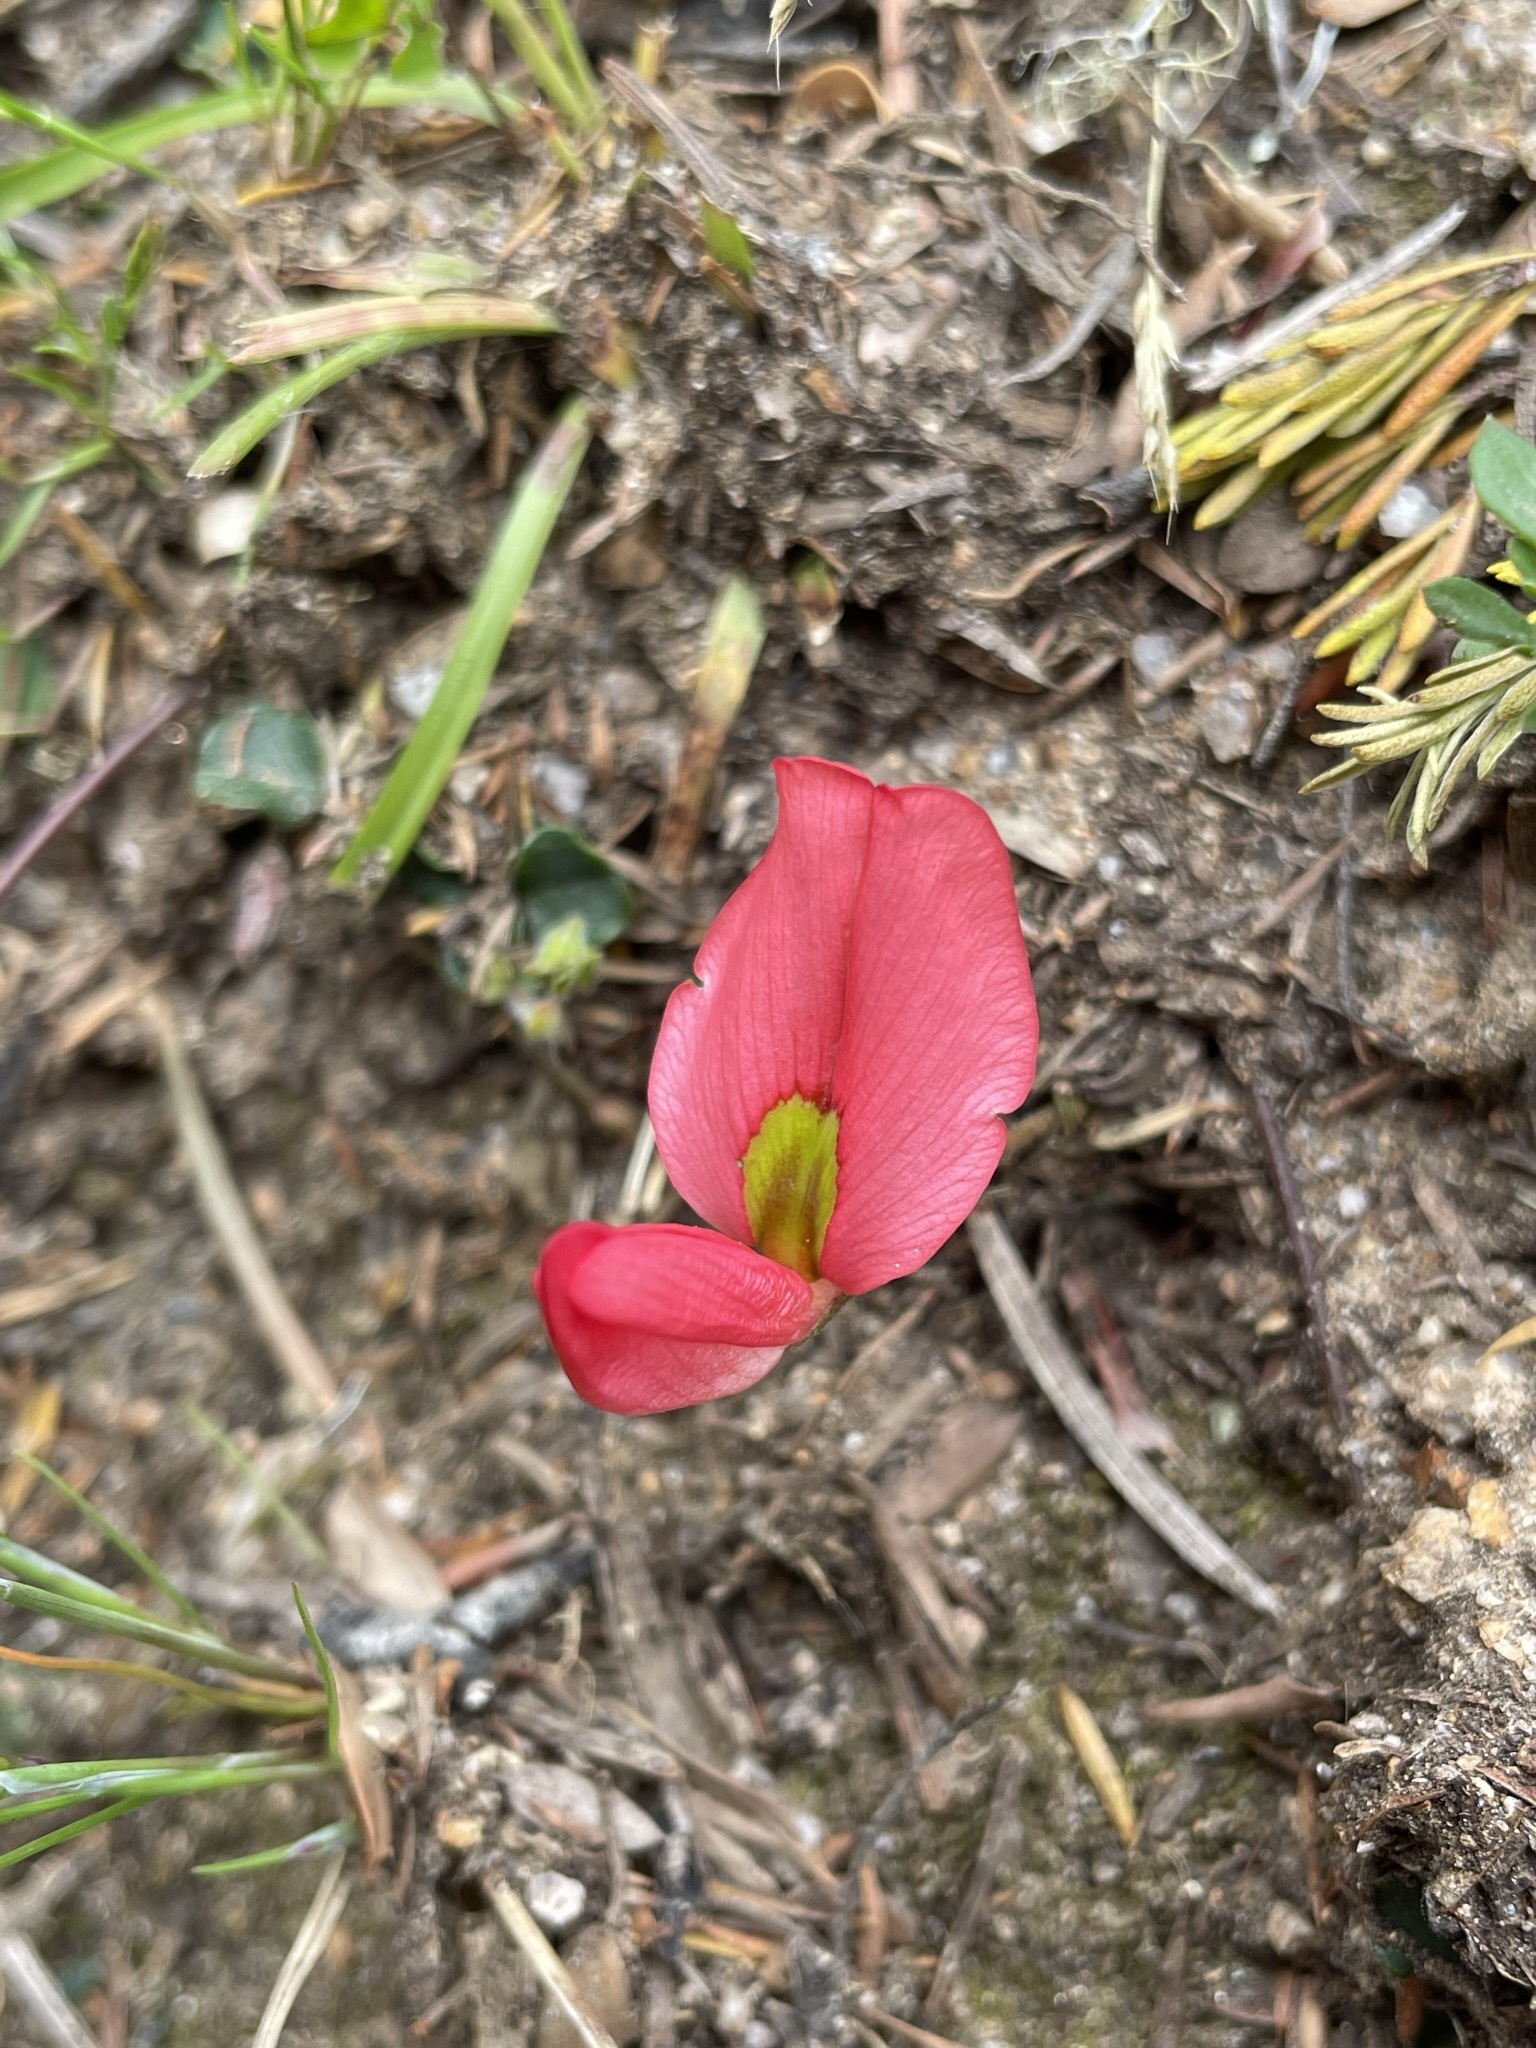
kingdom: Plantae
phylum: Tracheophyta
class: Magnoliopsida
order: Fabales
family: Fabaceae
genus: Kennedia
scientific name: Kennedia prostrata
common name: Running-postman
